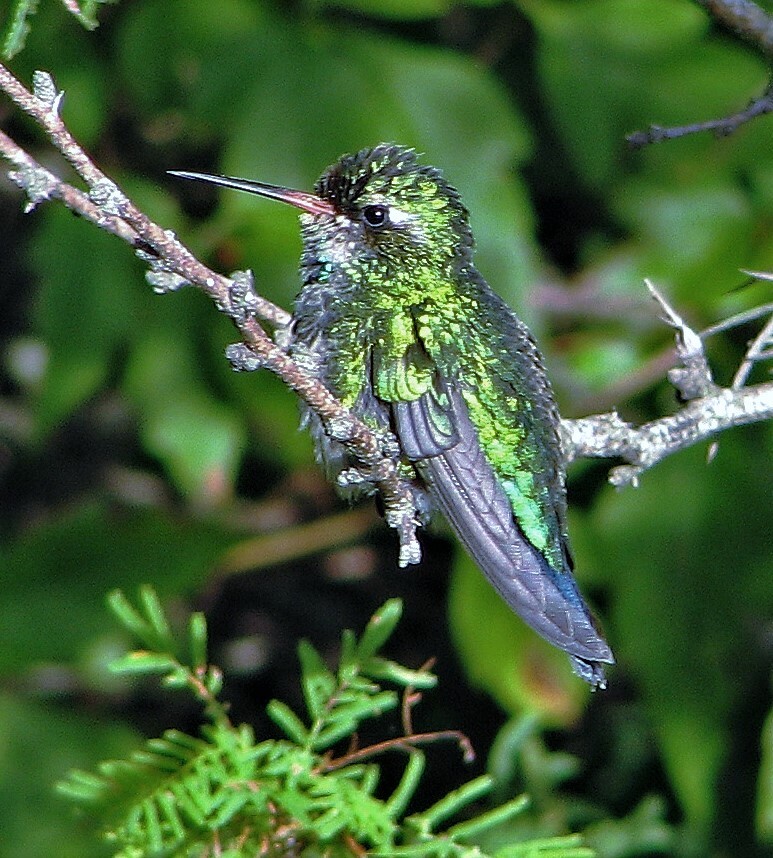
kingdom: Animalia
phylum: Chordata
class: Aves
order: Apodiformes
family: Trochilidae
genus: Chlorostilbon
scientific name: Chlorostilbon lucidus
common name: Glittering-bellied emerald
